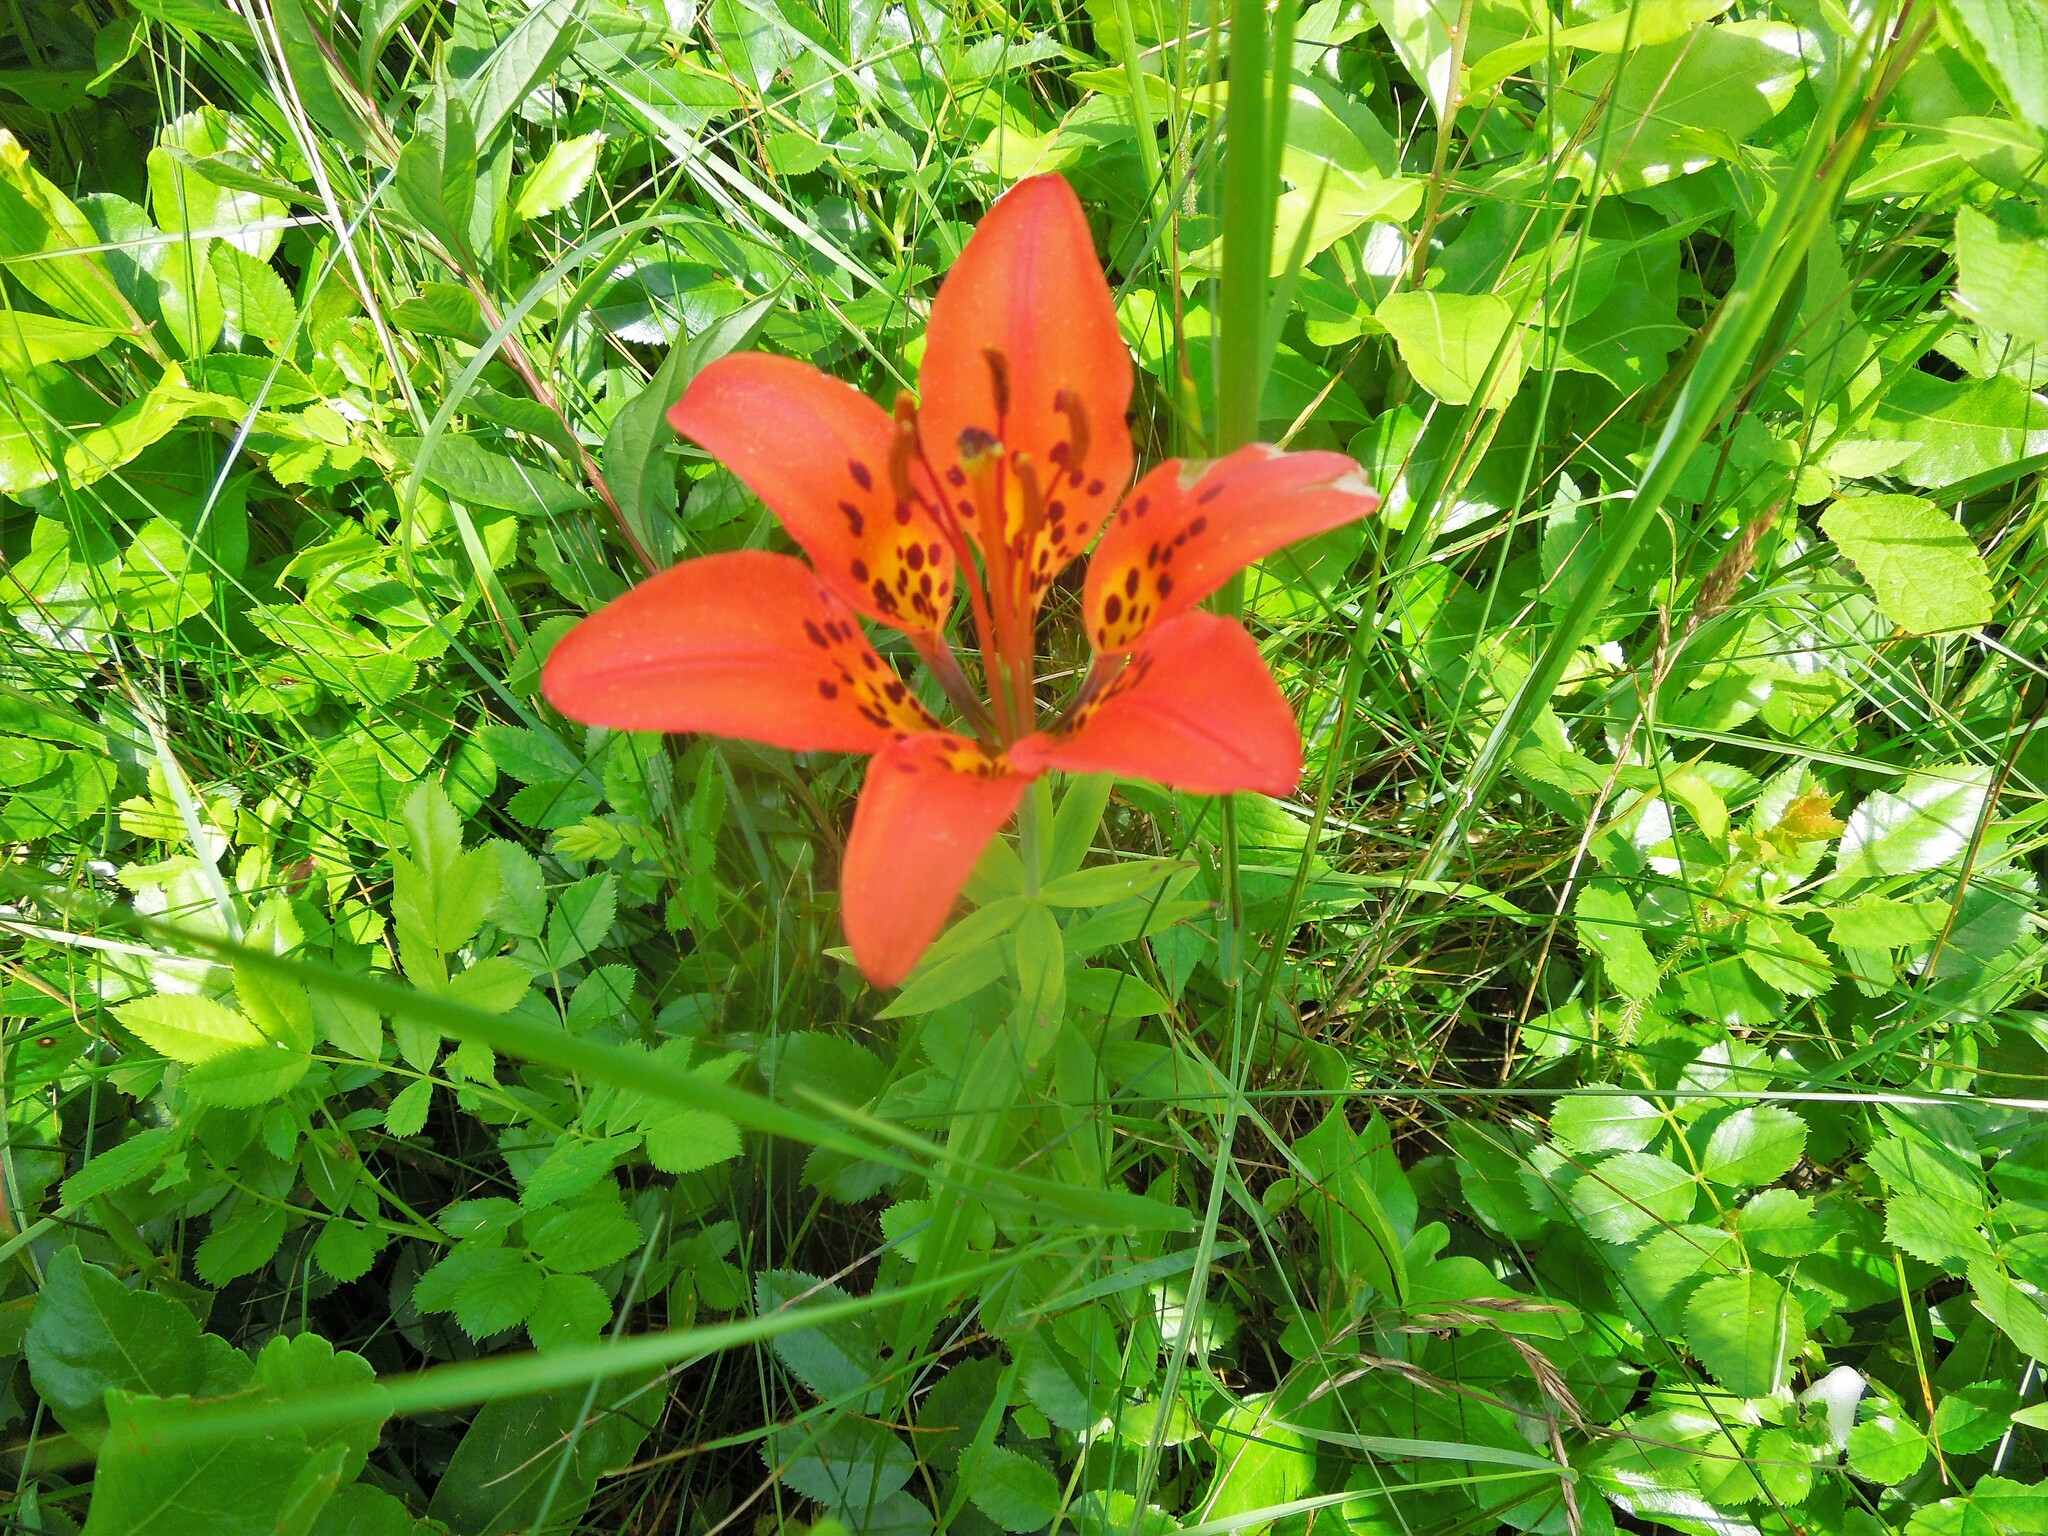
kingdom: Plantae
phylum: Tracheophyta
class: Liliopsida
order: Liliales
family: Liliaceae
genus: Lilium
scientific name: Lilium philadelphicum
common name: Red lily
